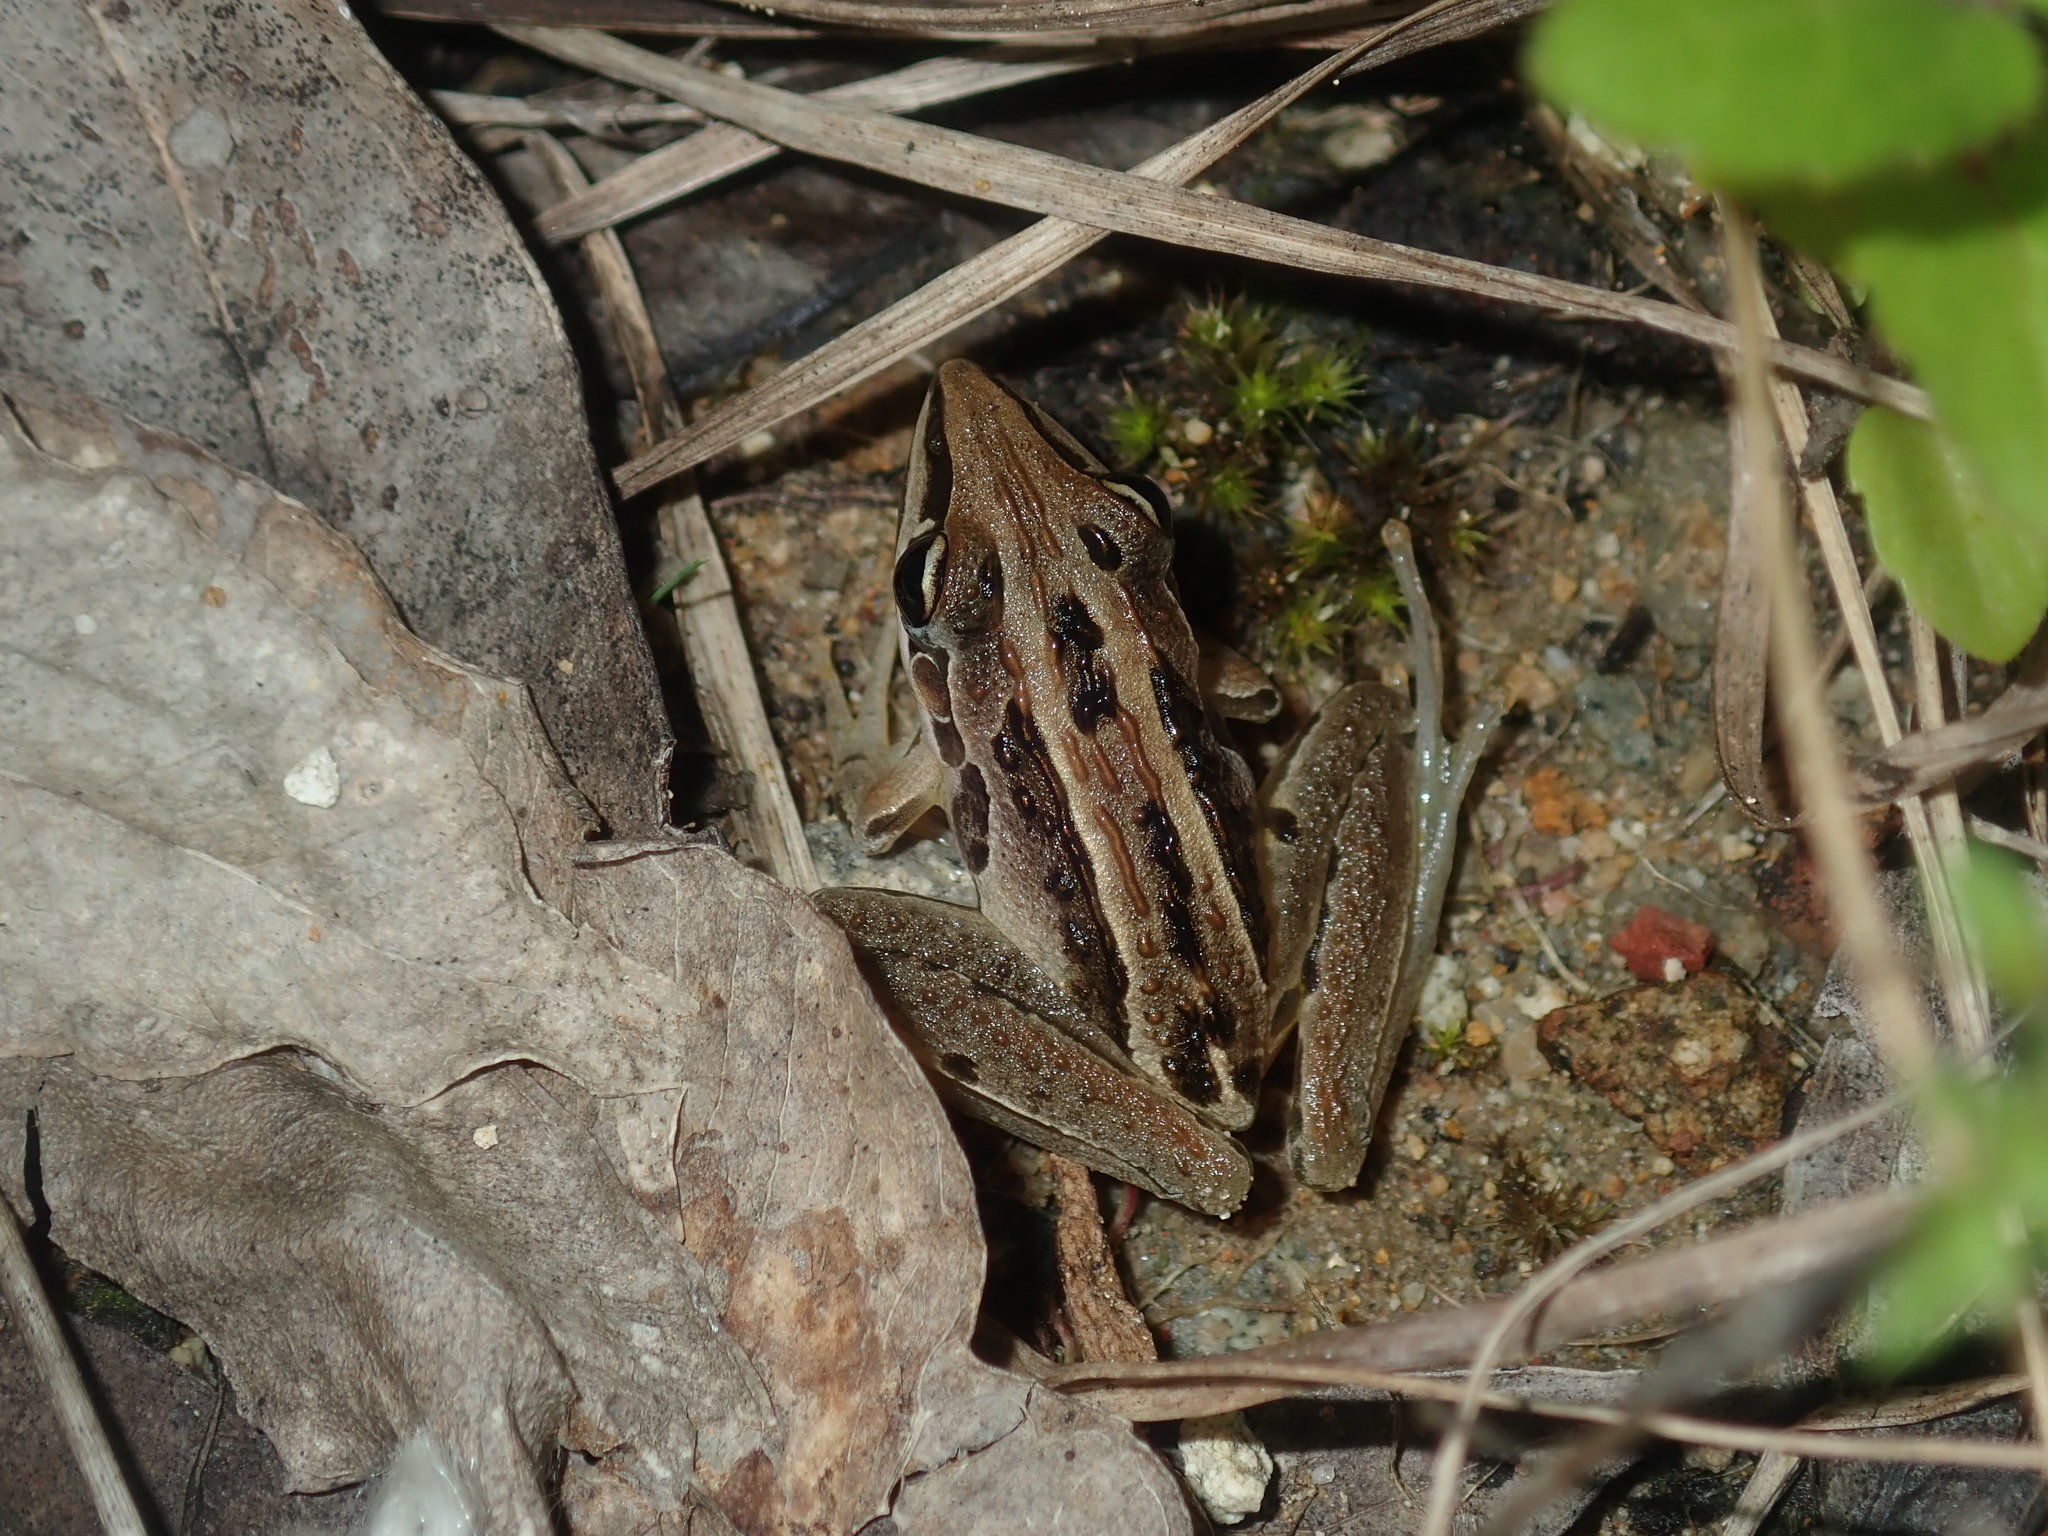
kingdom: Animalia
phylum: Chordata
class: Amphibia
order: Anura
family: Pelodryadidae
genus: Litoria
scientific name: Litoria nasuta
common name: Rocket frog
